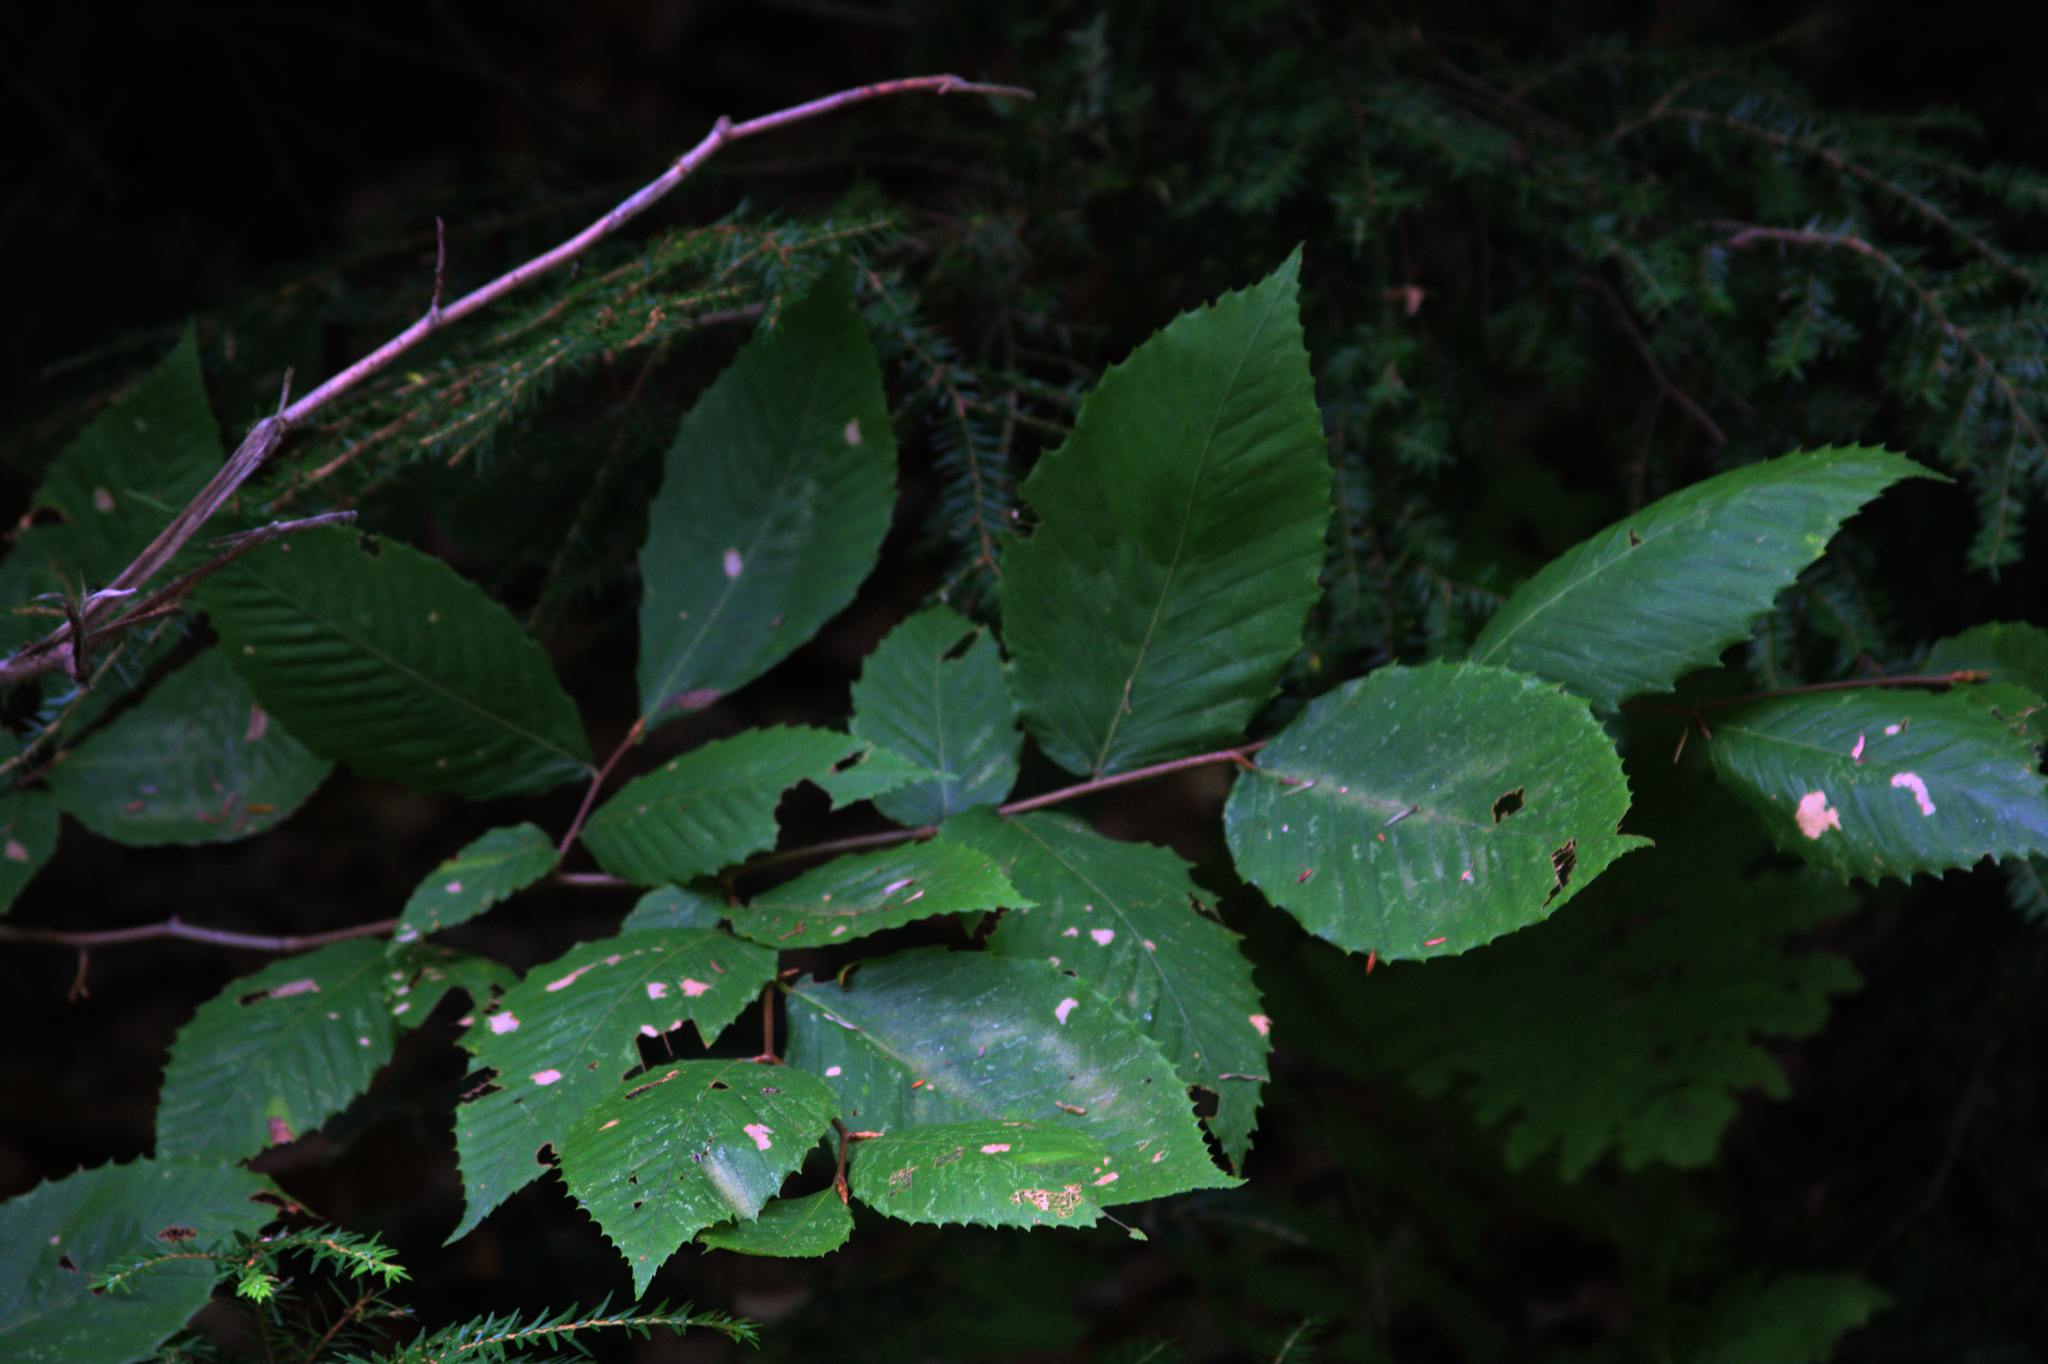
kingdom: Plantae
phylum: Tracheophyta
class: Magnoliopsida
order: Fagales
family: Fagaceae
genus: Fagus
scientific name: Fagus grandifolia
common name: American beech
